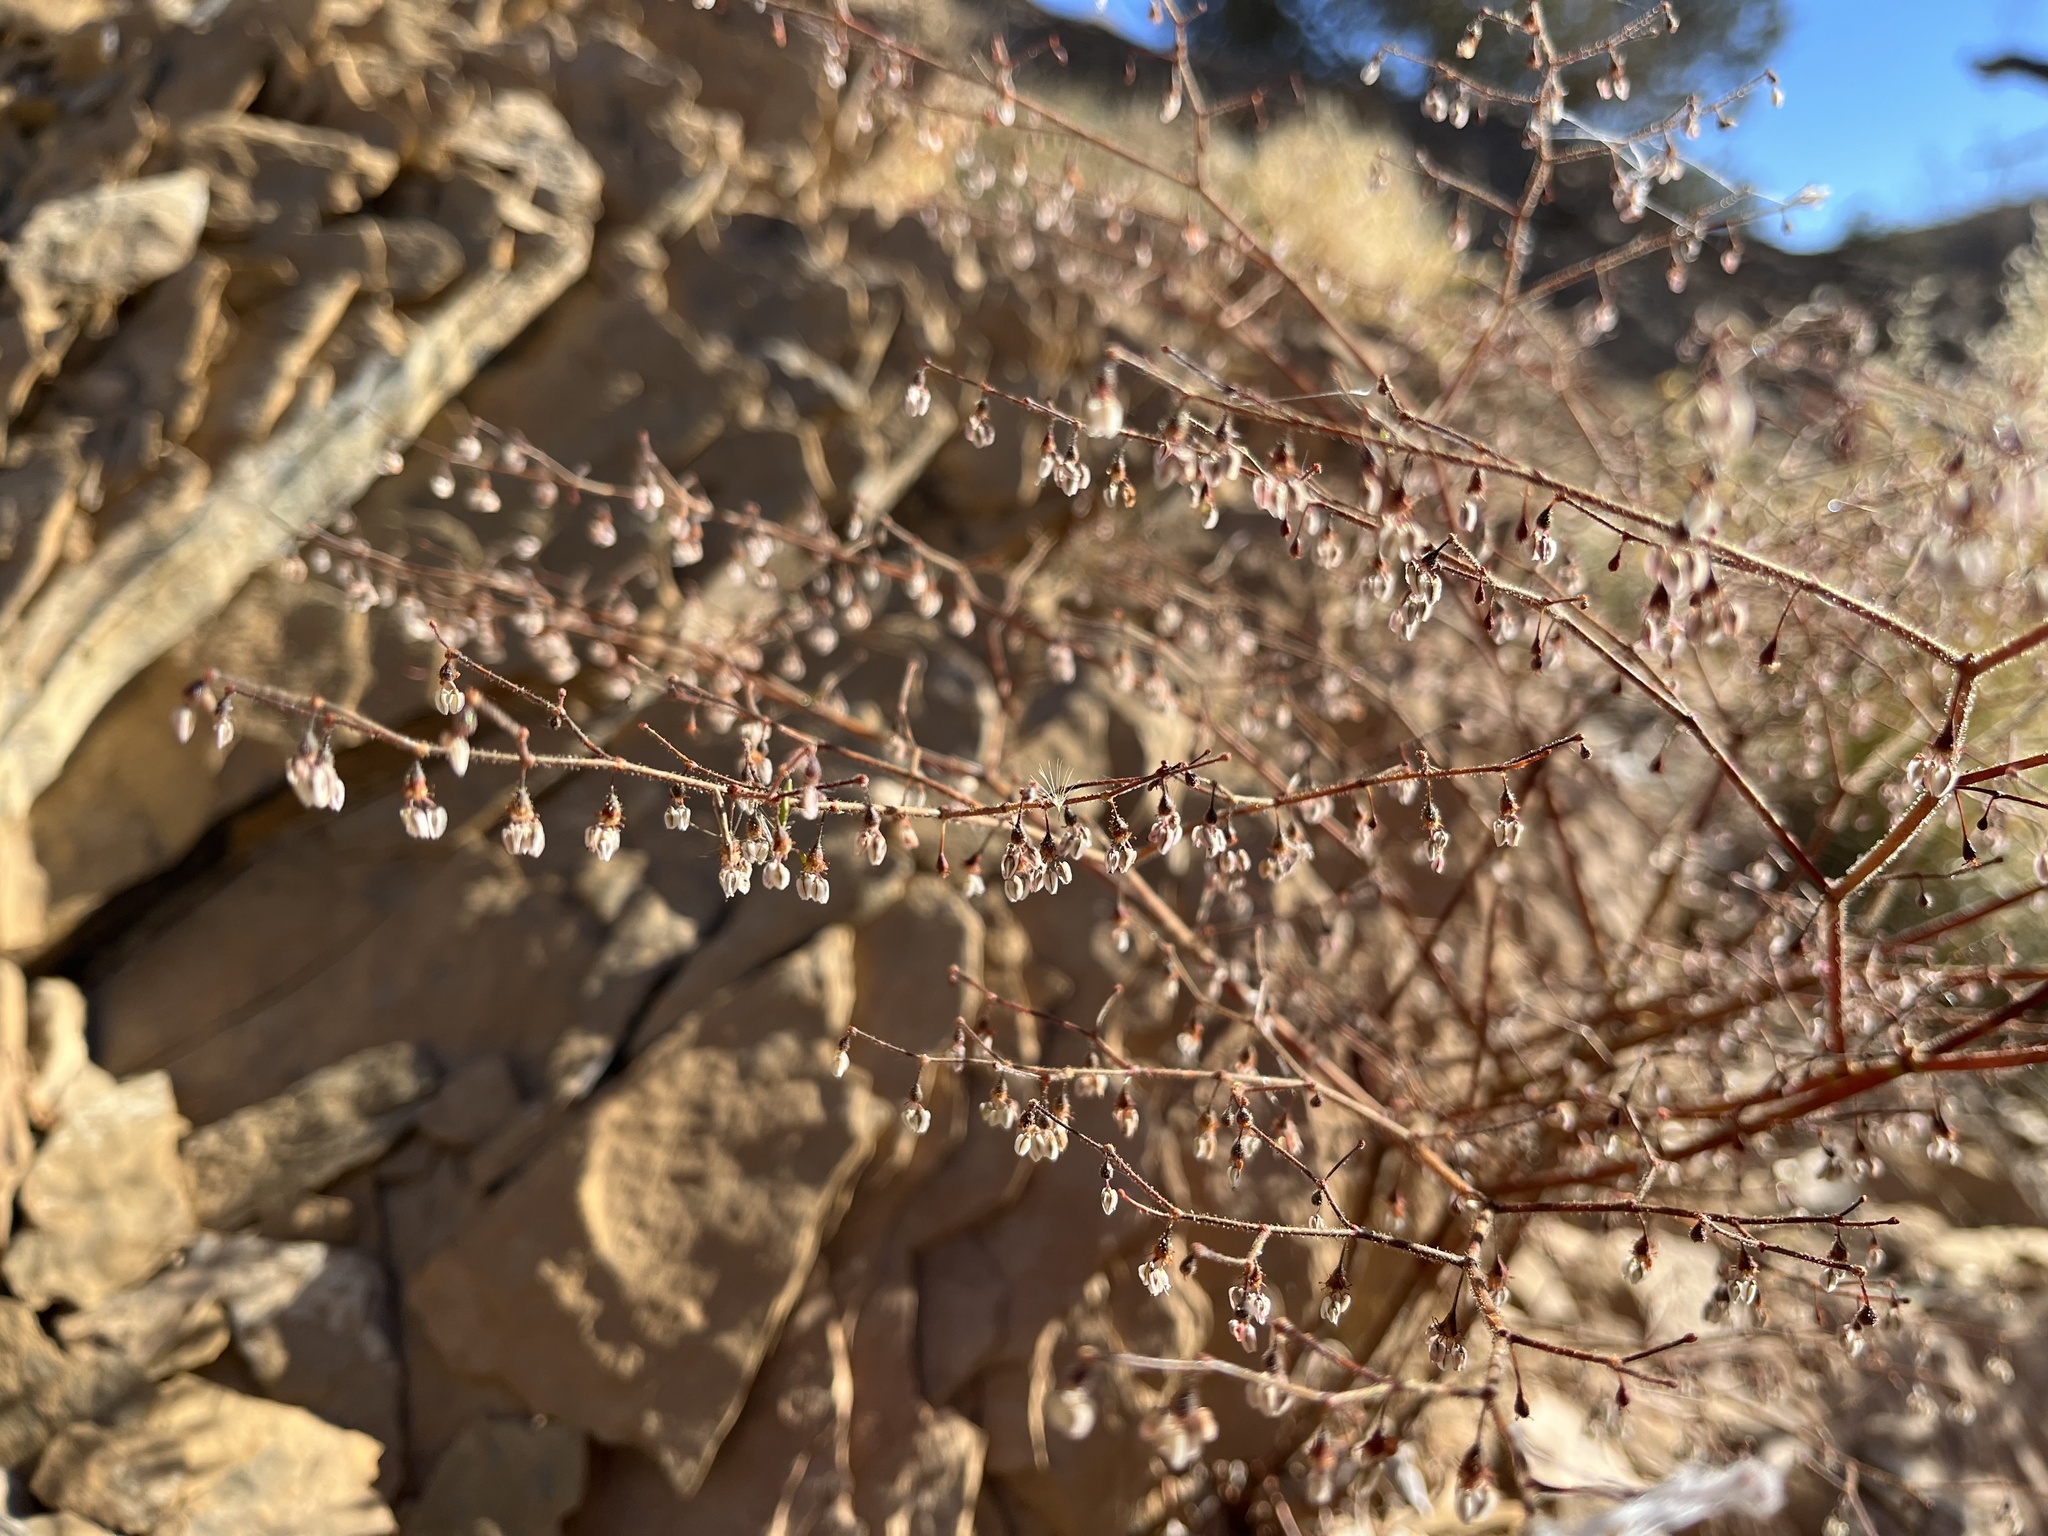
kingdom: Plantae
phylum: Tracheophyta
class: Magnoliopsida
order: Caryophyllales
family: Polygonaceae
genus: Eriogonum
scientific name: Eriogonum brachypodum
